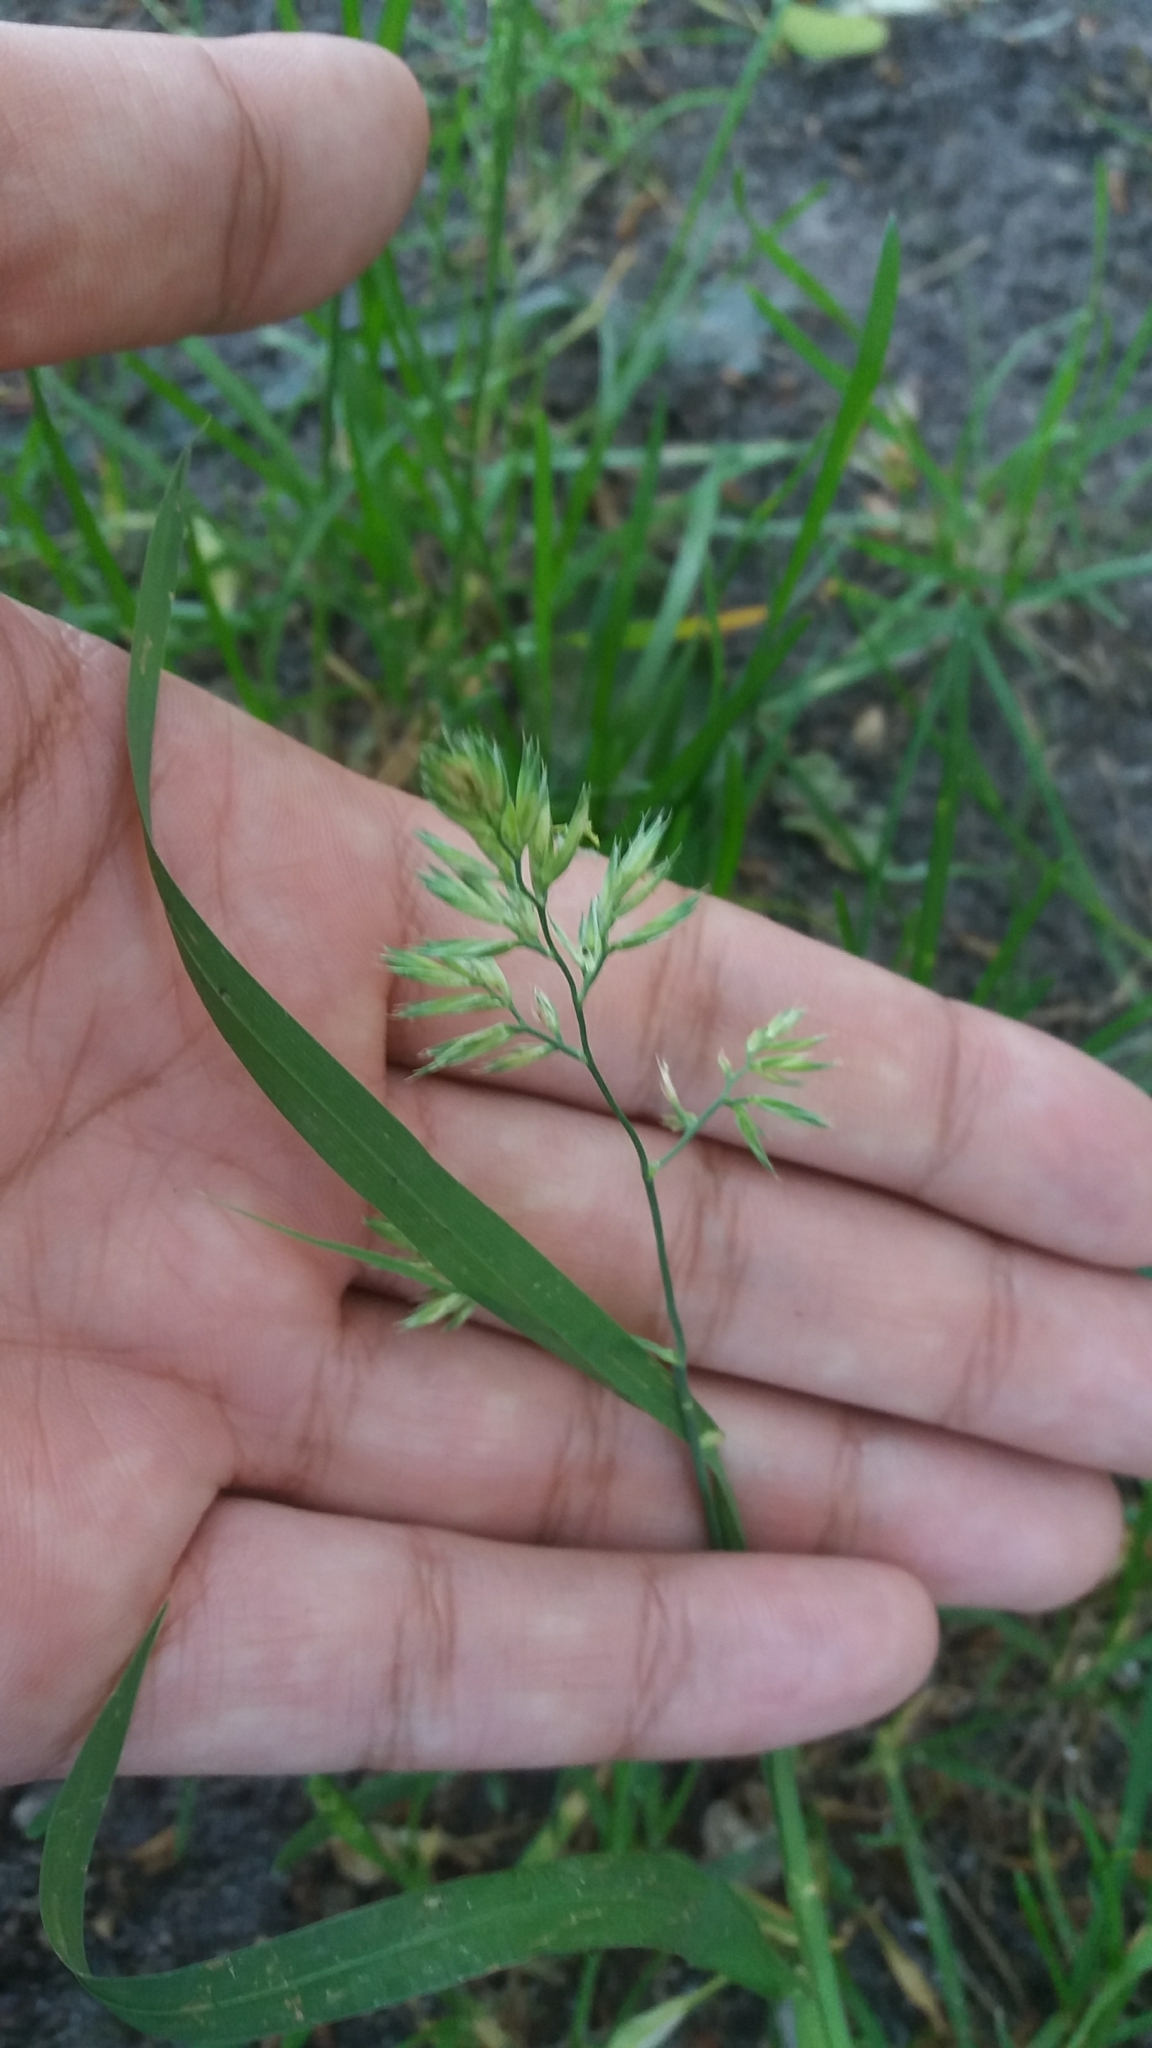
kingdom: Plantae
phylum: Tracheophyta
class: Liliopsida
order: Poales
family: Poaceae
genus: Dactylis
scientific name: Dactylis glomerata
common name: Orchardgrass
